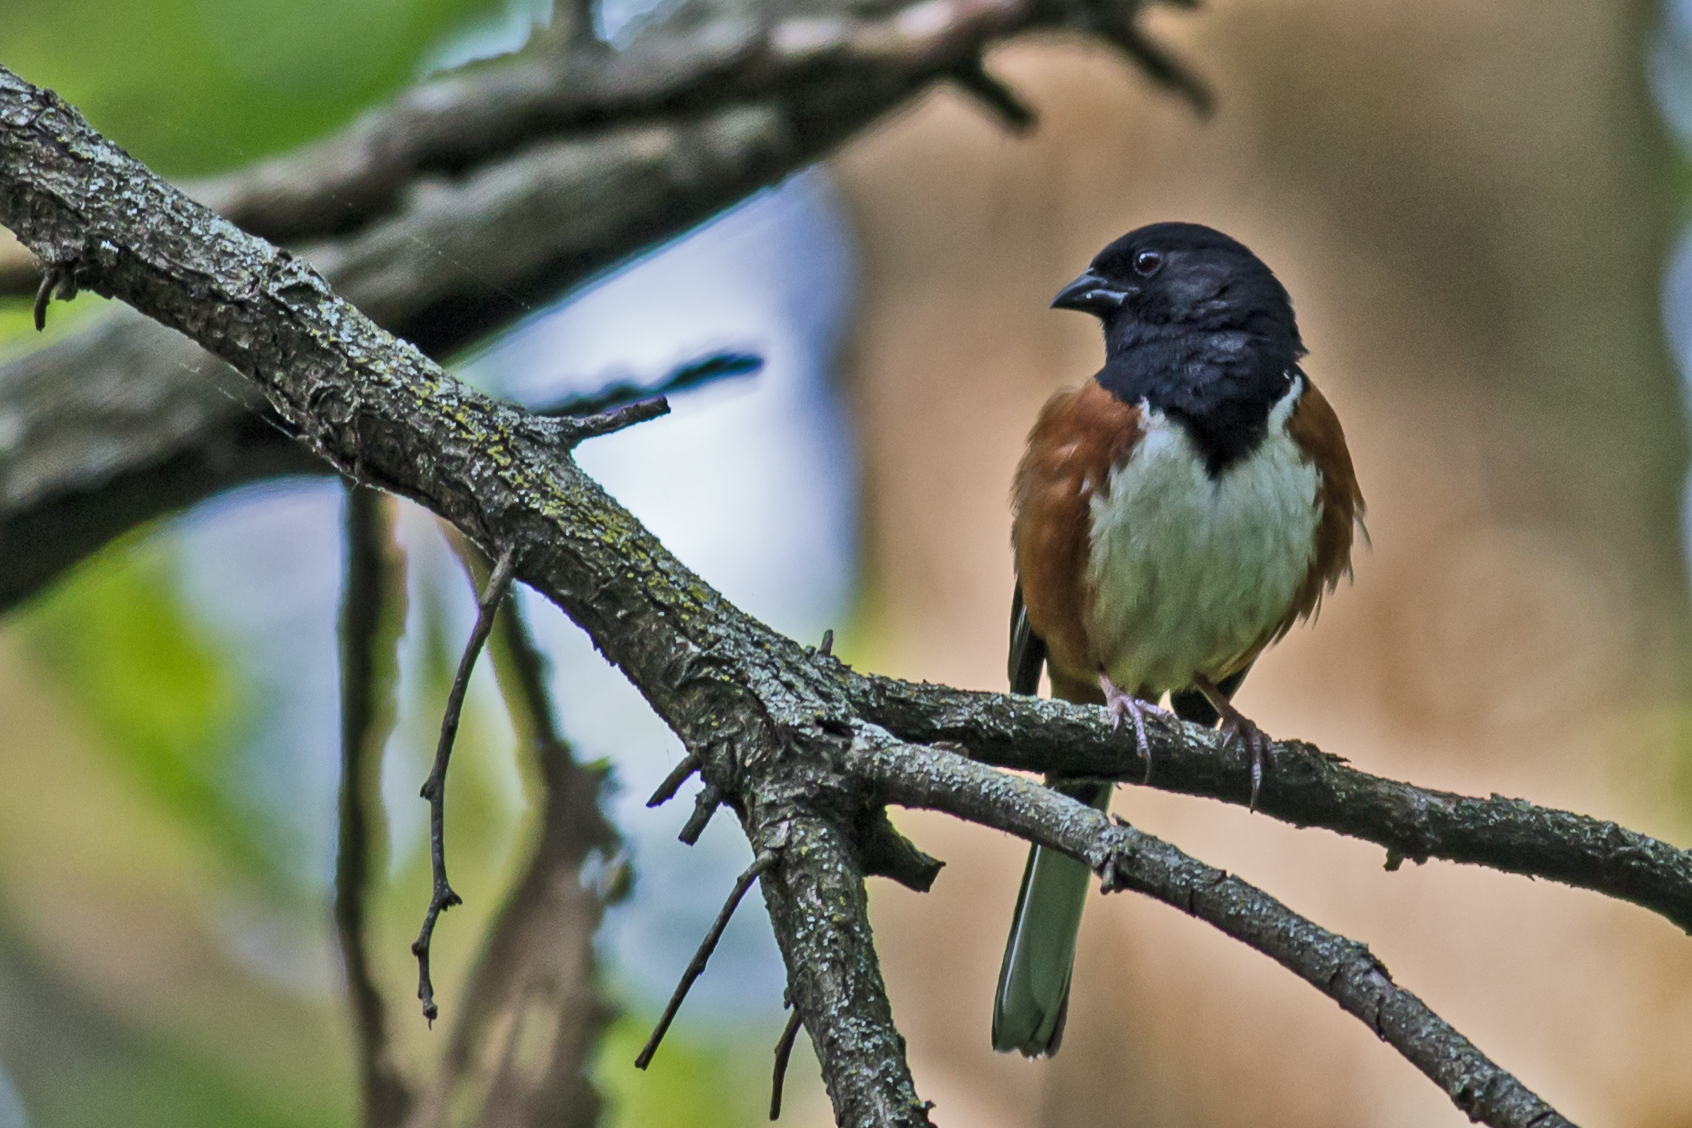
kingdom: Animalia
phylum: Chordata
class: Aves
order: Passeriformes
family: Passerellidae
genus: Pipilo
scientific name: Pipilo erythrophthalmus
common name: Eastern towhee
